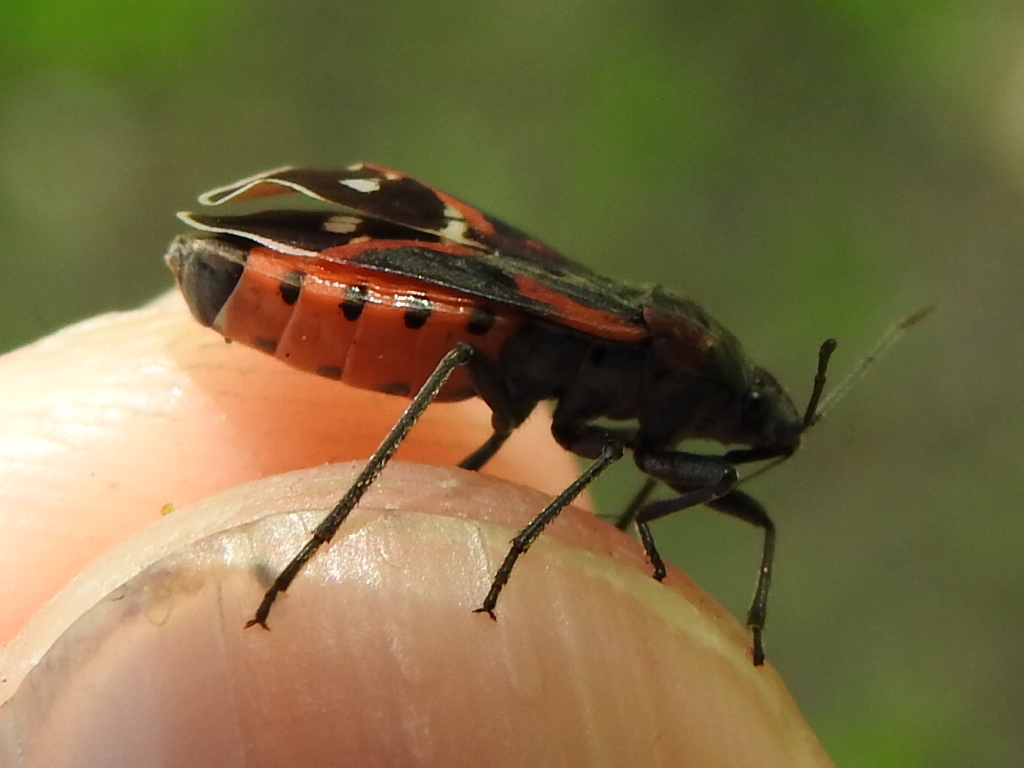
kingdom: Animalia
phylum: Arthropoda
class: Insecta
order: Hemiptera
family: Lygaeidae
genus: Lygaeus
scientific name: Lygaeus kalmii
